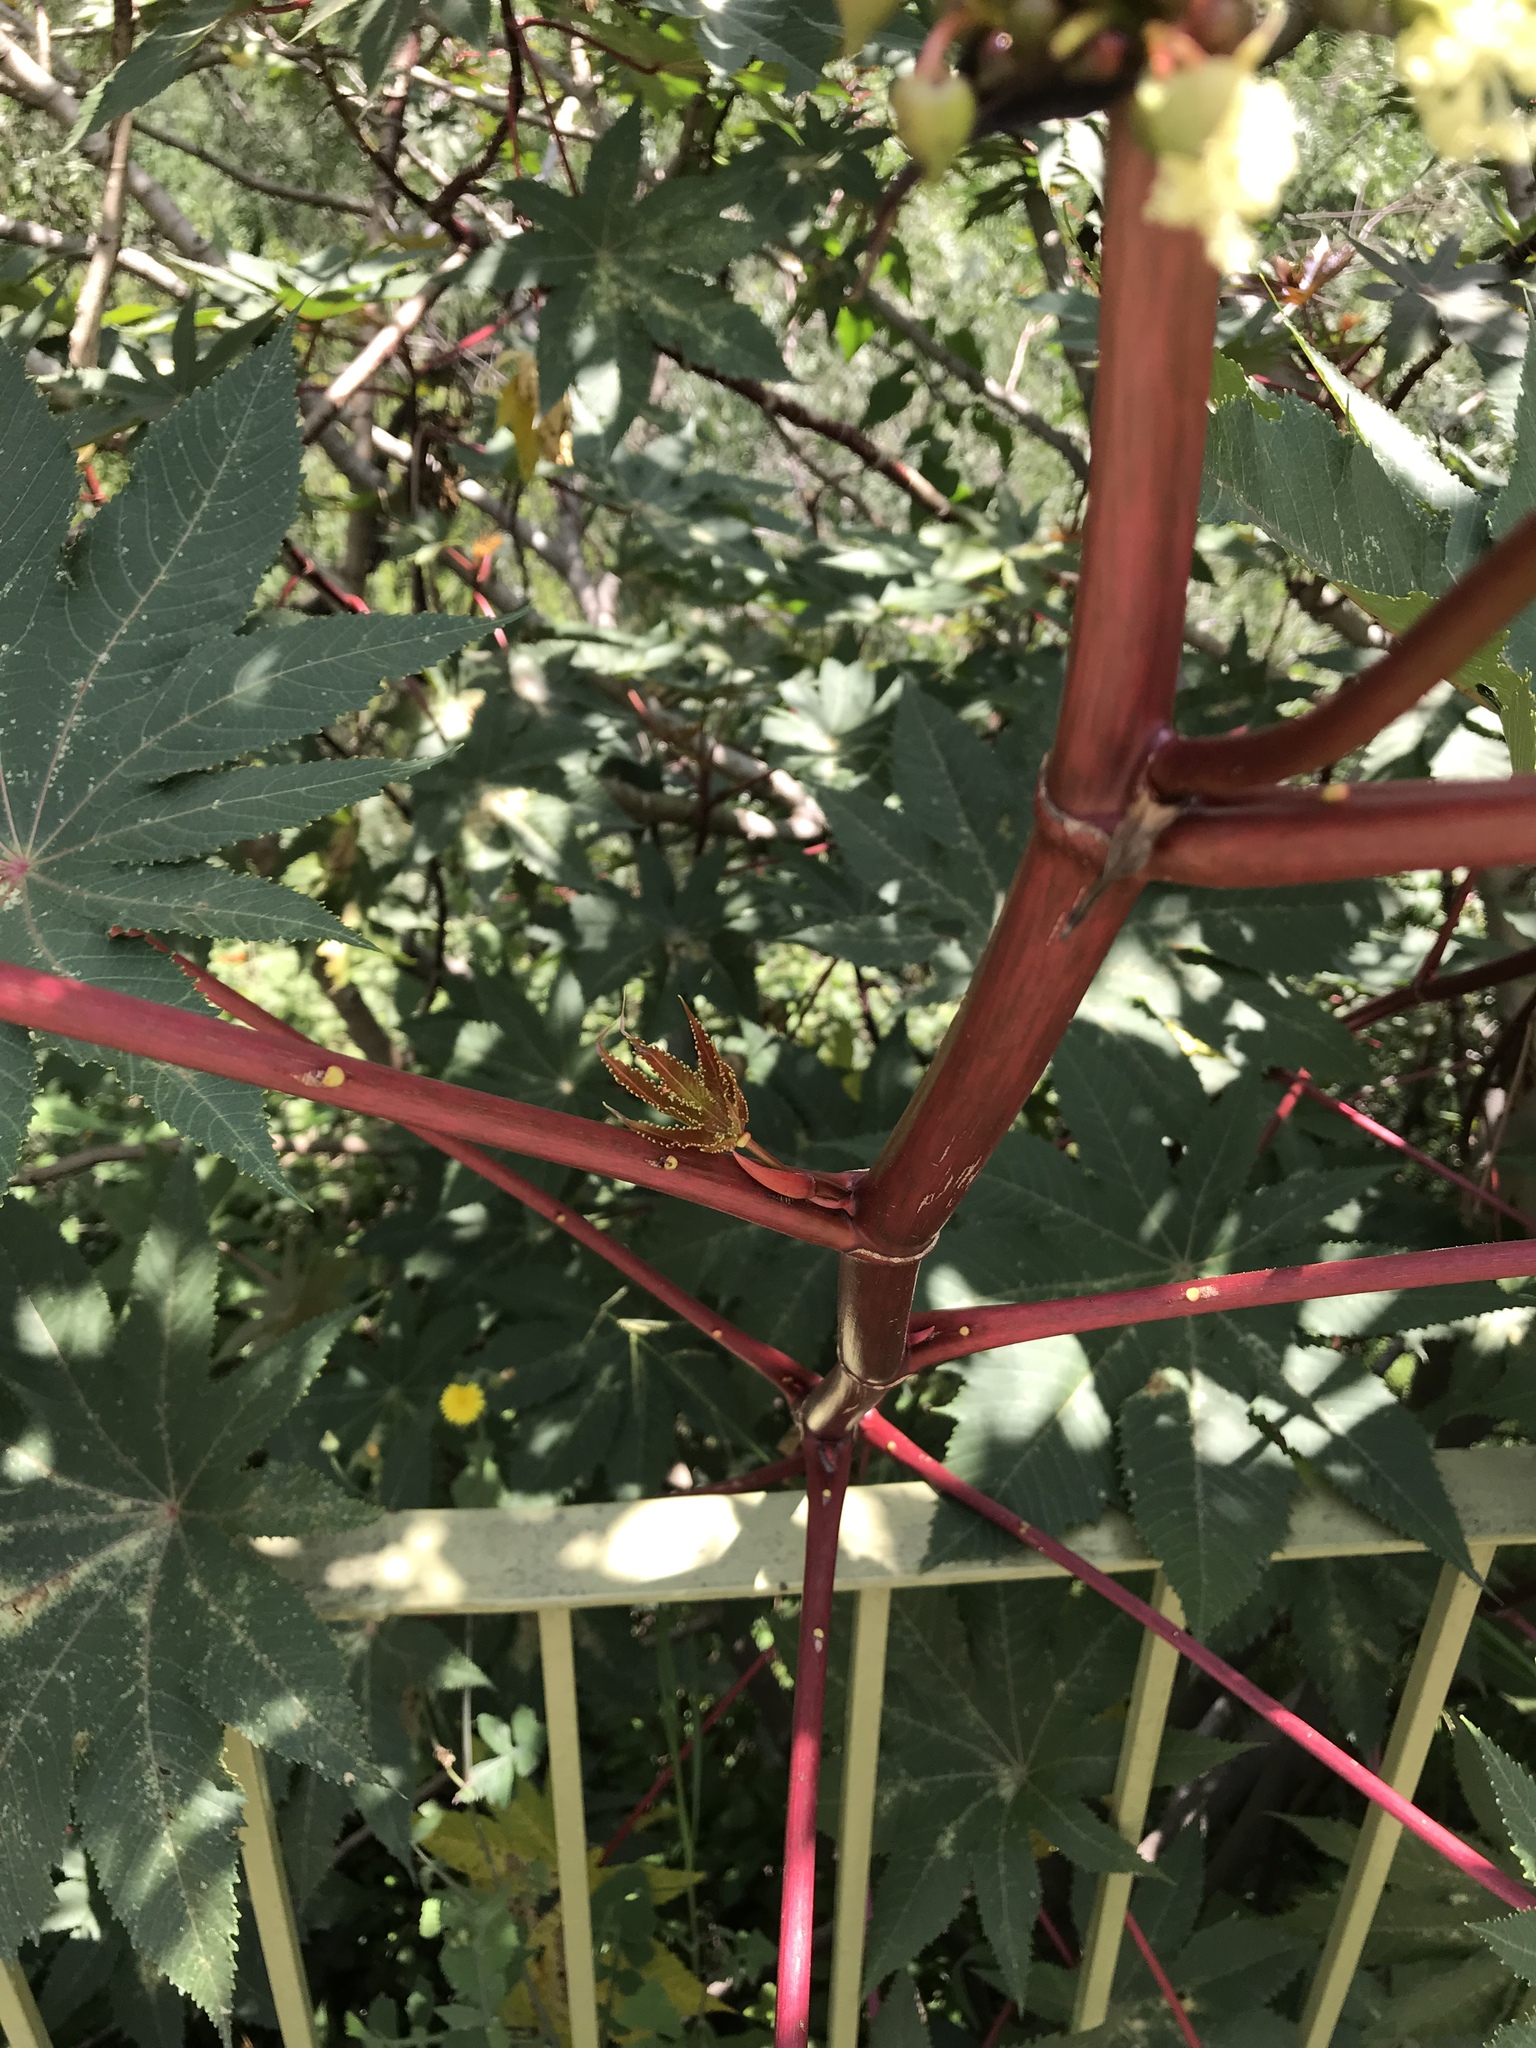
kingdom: Plantae
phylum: Tracheophyta
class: Magnoliopsida
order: Malpighiales
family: Euphorbiaceae
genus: Ricinus
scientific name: Ricinus communis
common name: Castor-oil-plant
